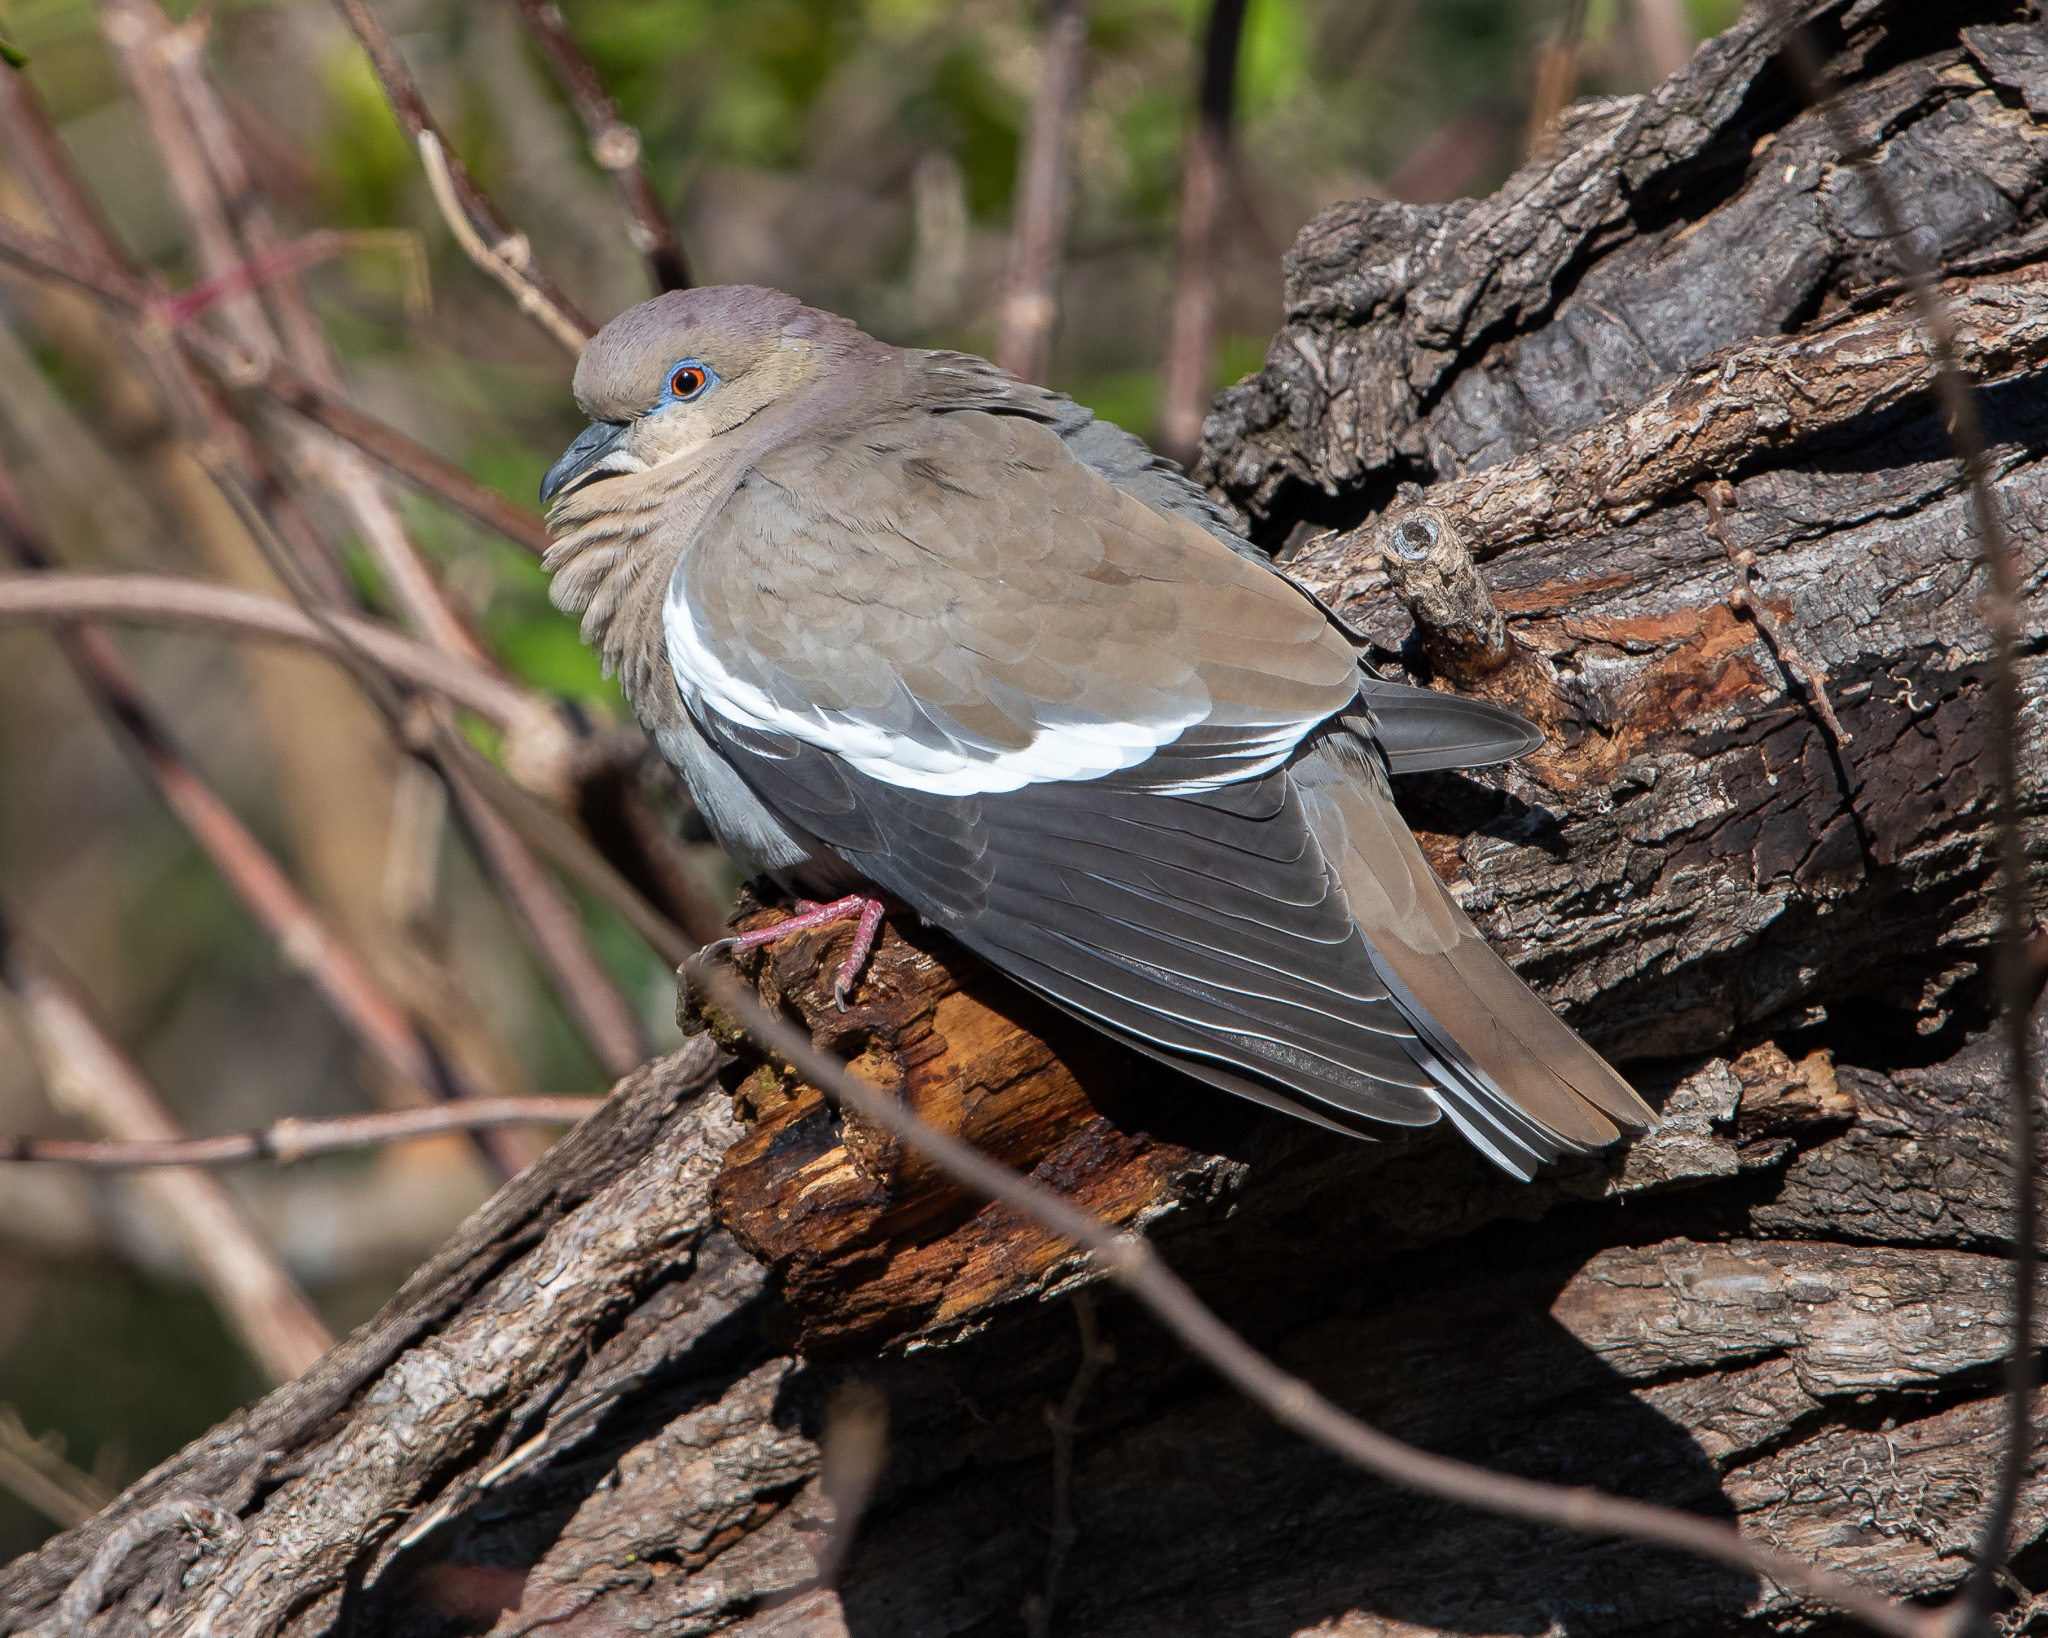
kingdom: Animalia
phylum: Chordata
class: Aves
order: Columbiformes
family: Columbidae
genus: Zenaida
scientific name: Zenaida asiatica
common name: White-winged dove
